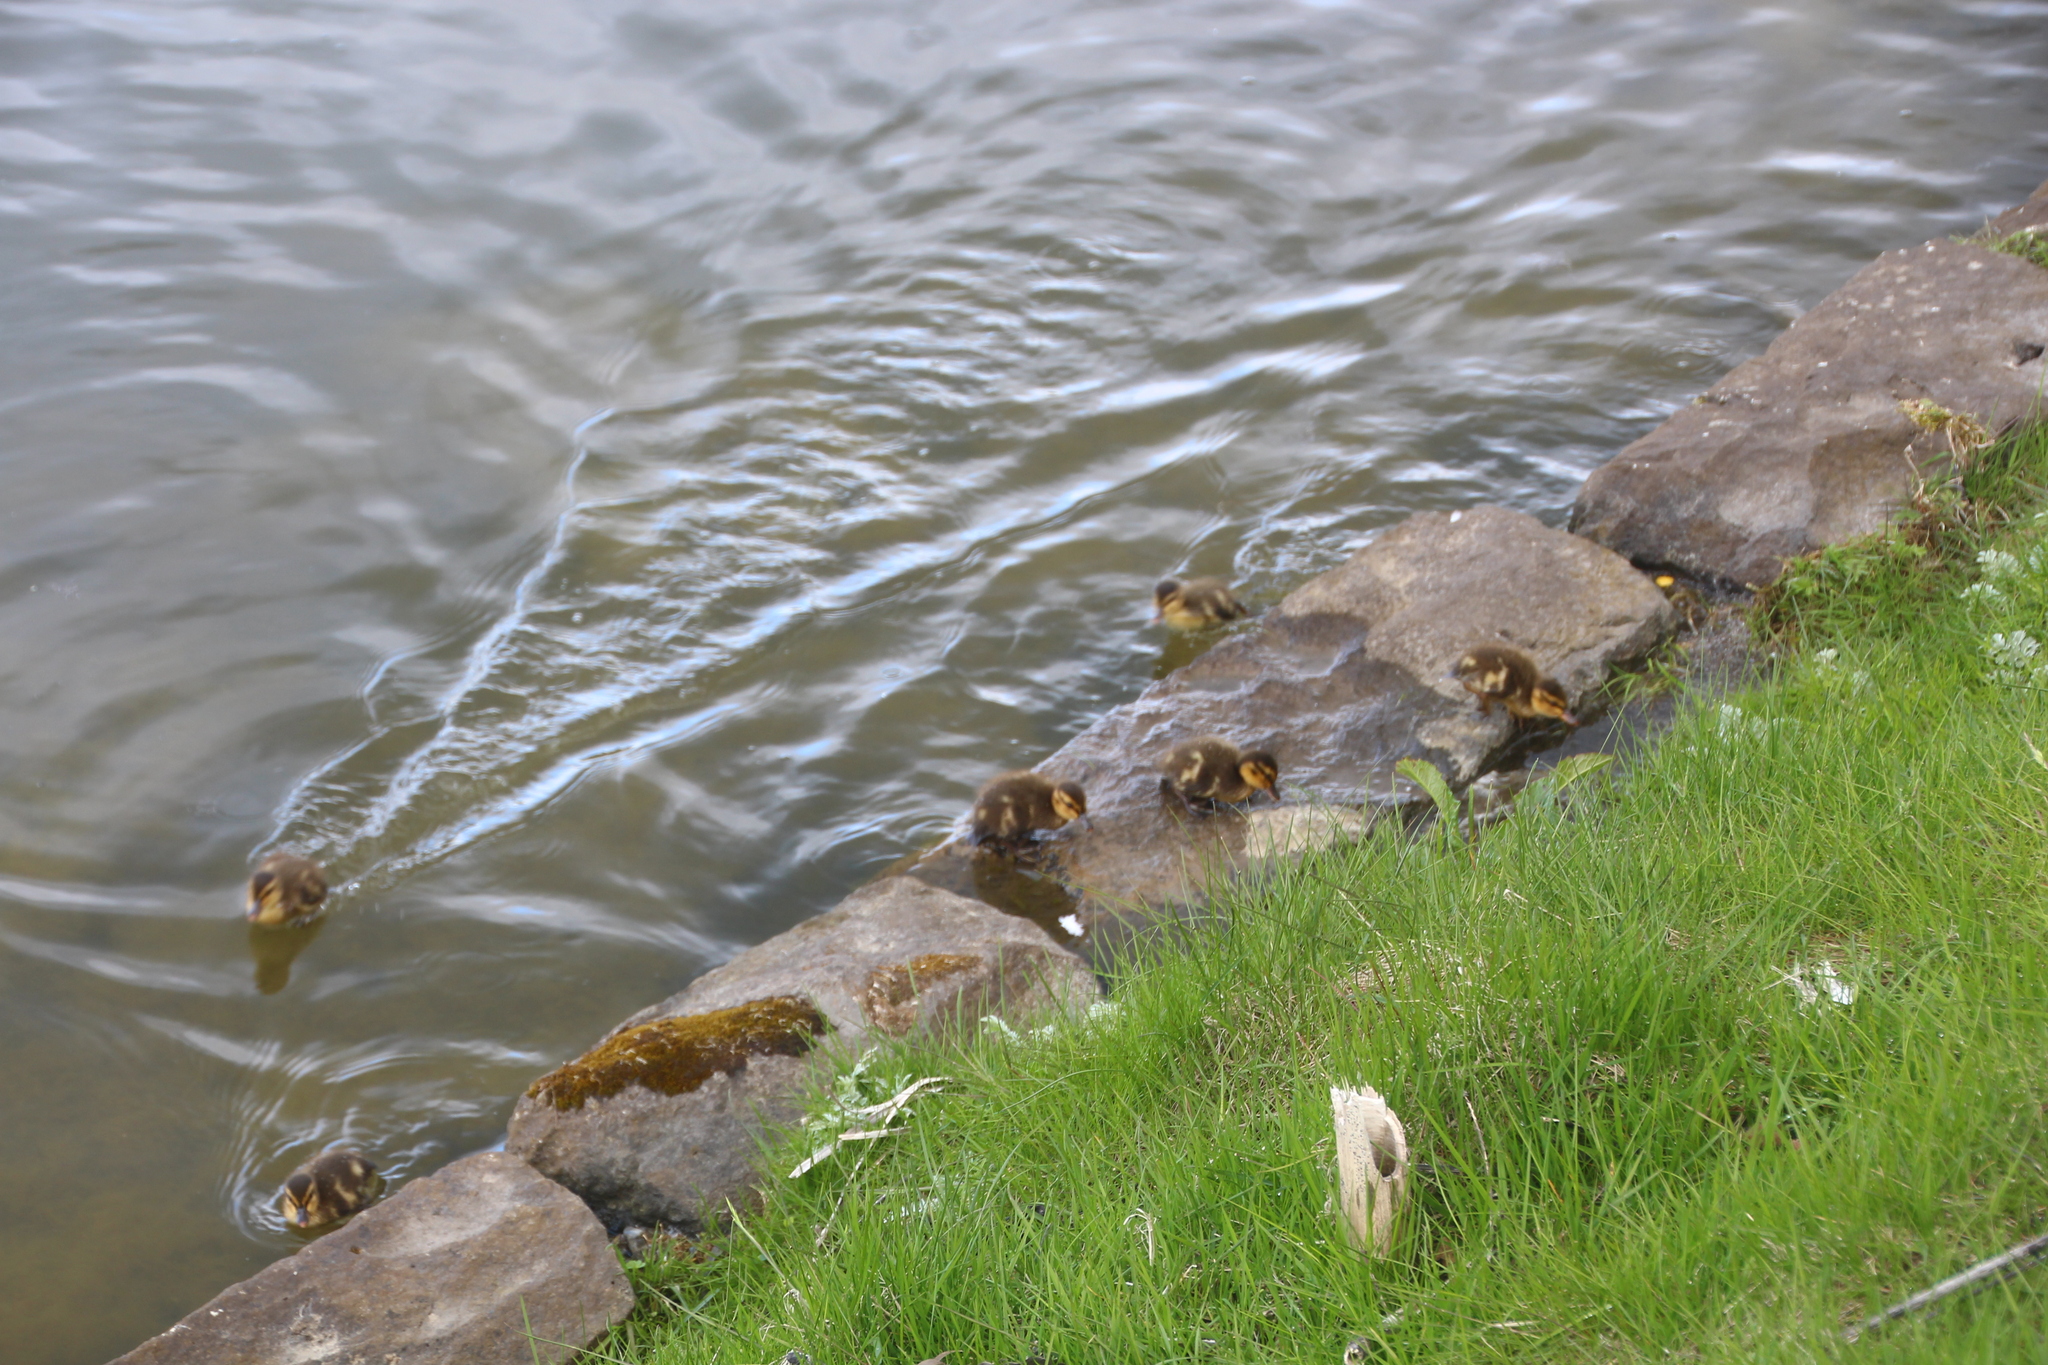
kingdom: Animalia
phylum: Chordata
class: Aves
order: Anseriformes
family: Anatidae
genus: Anas
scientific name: Anas platyrhynchos
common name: Mallard
